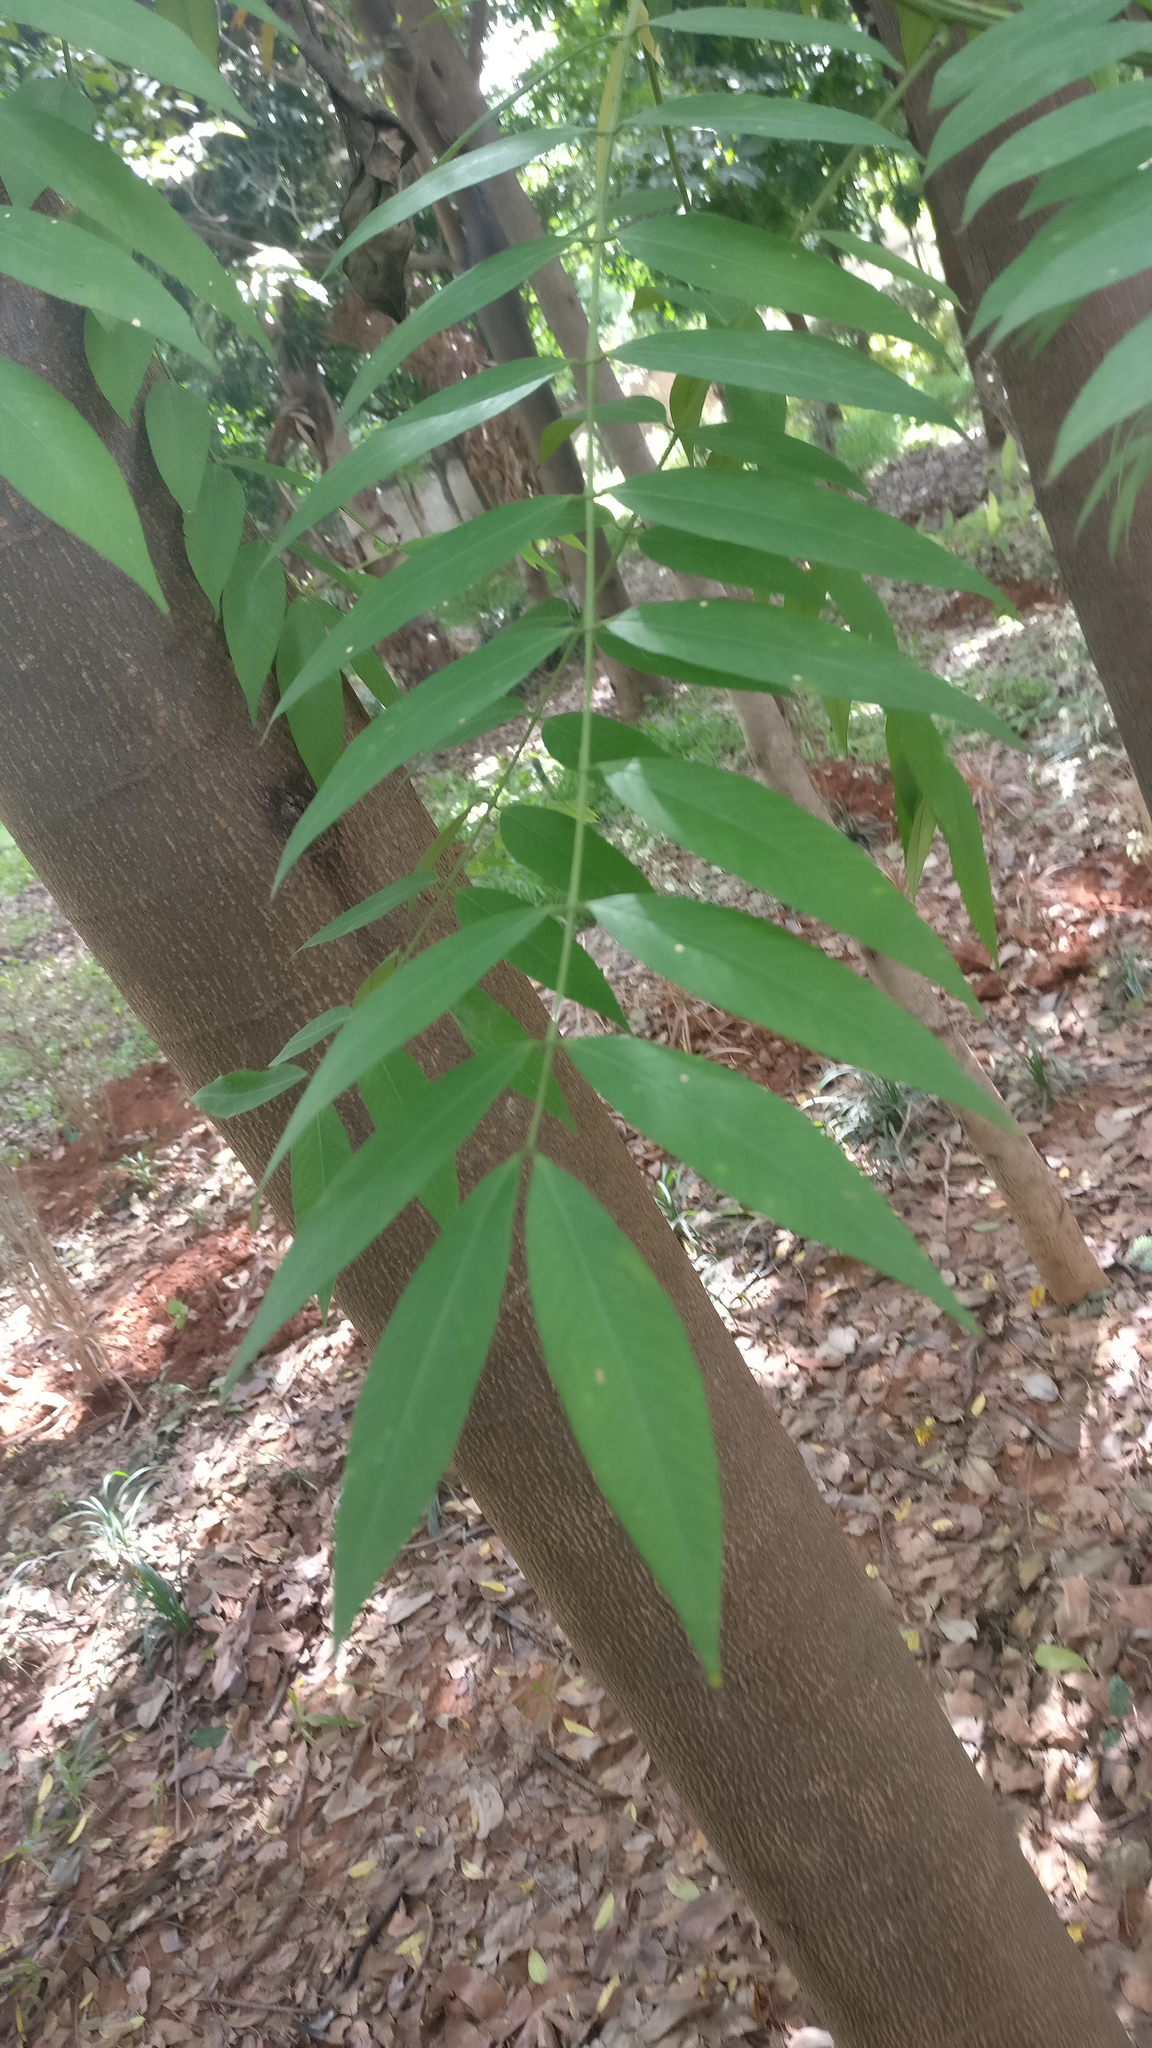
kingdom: Plantae
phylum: Tracheophyta
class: Magnoliopsida
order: Fabales
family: Fabaceae
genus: Senna
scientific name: Senna spectabilis
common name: Casia amarilla
